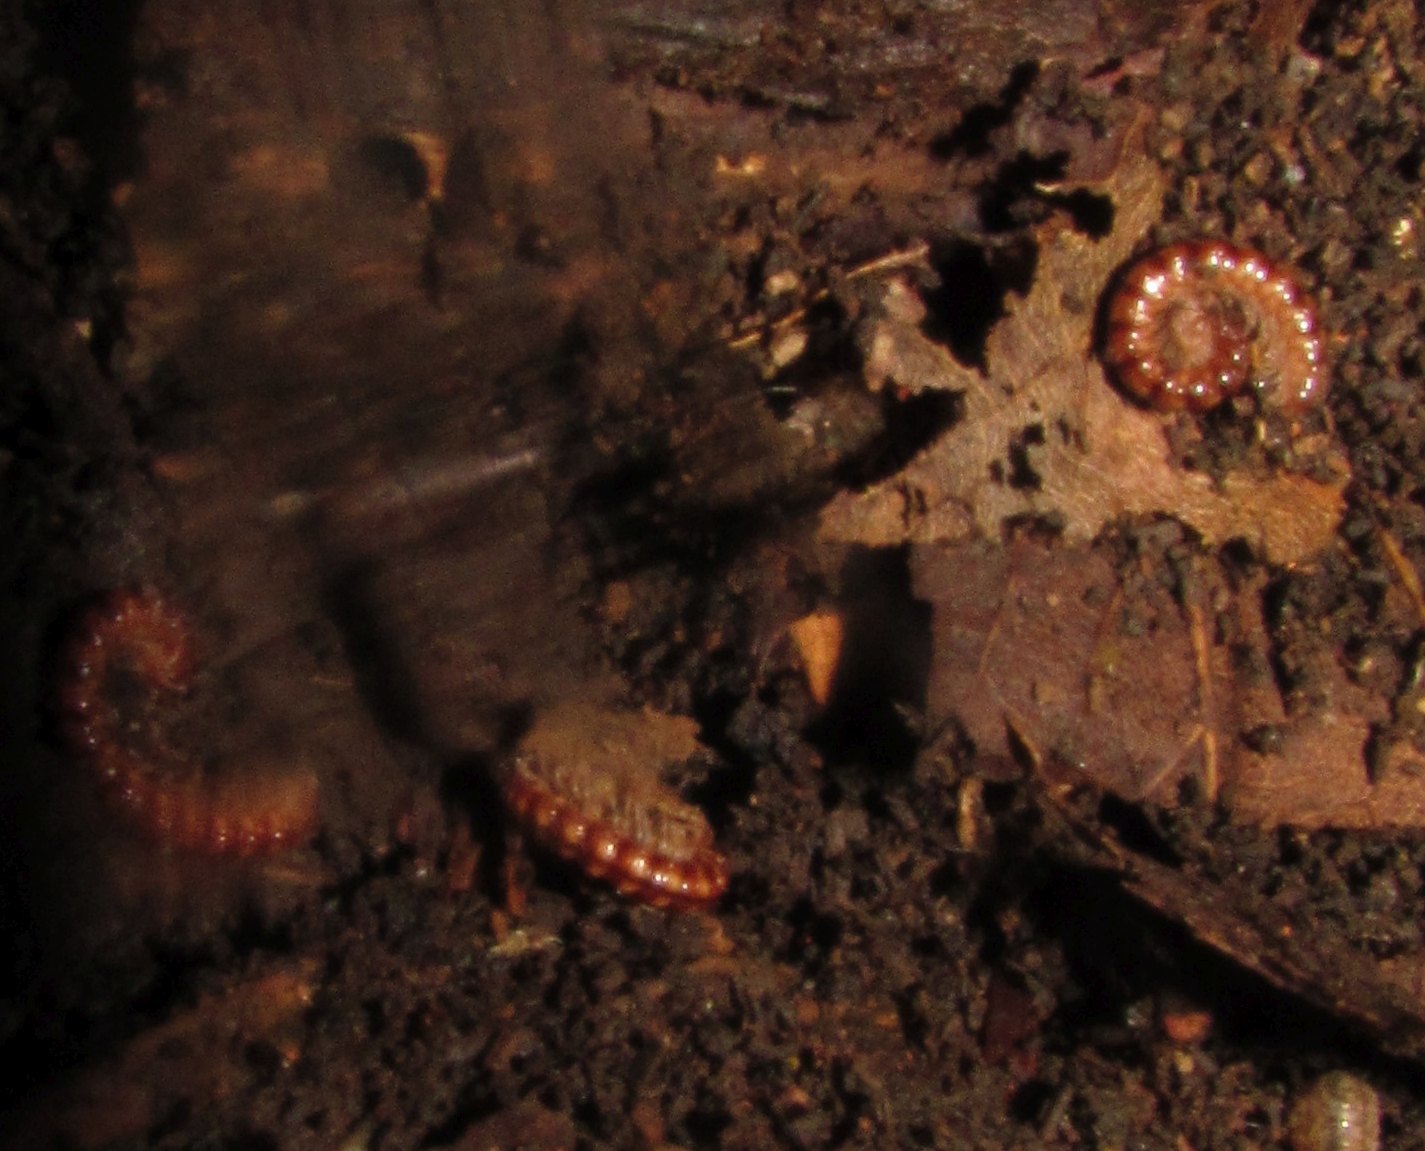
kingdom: Animalia
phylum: Arthropoda
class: Diplopoda
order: Polydesmida
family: Paradoxosomatidae
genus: Stosatea
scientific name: Stosatea italicum
